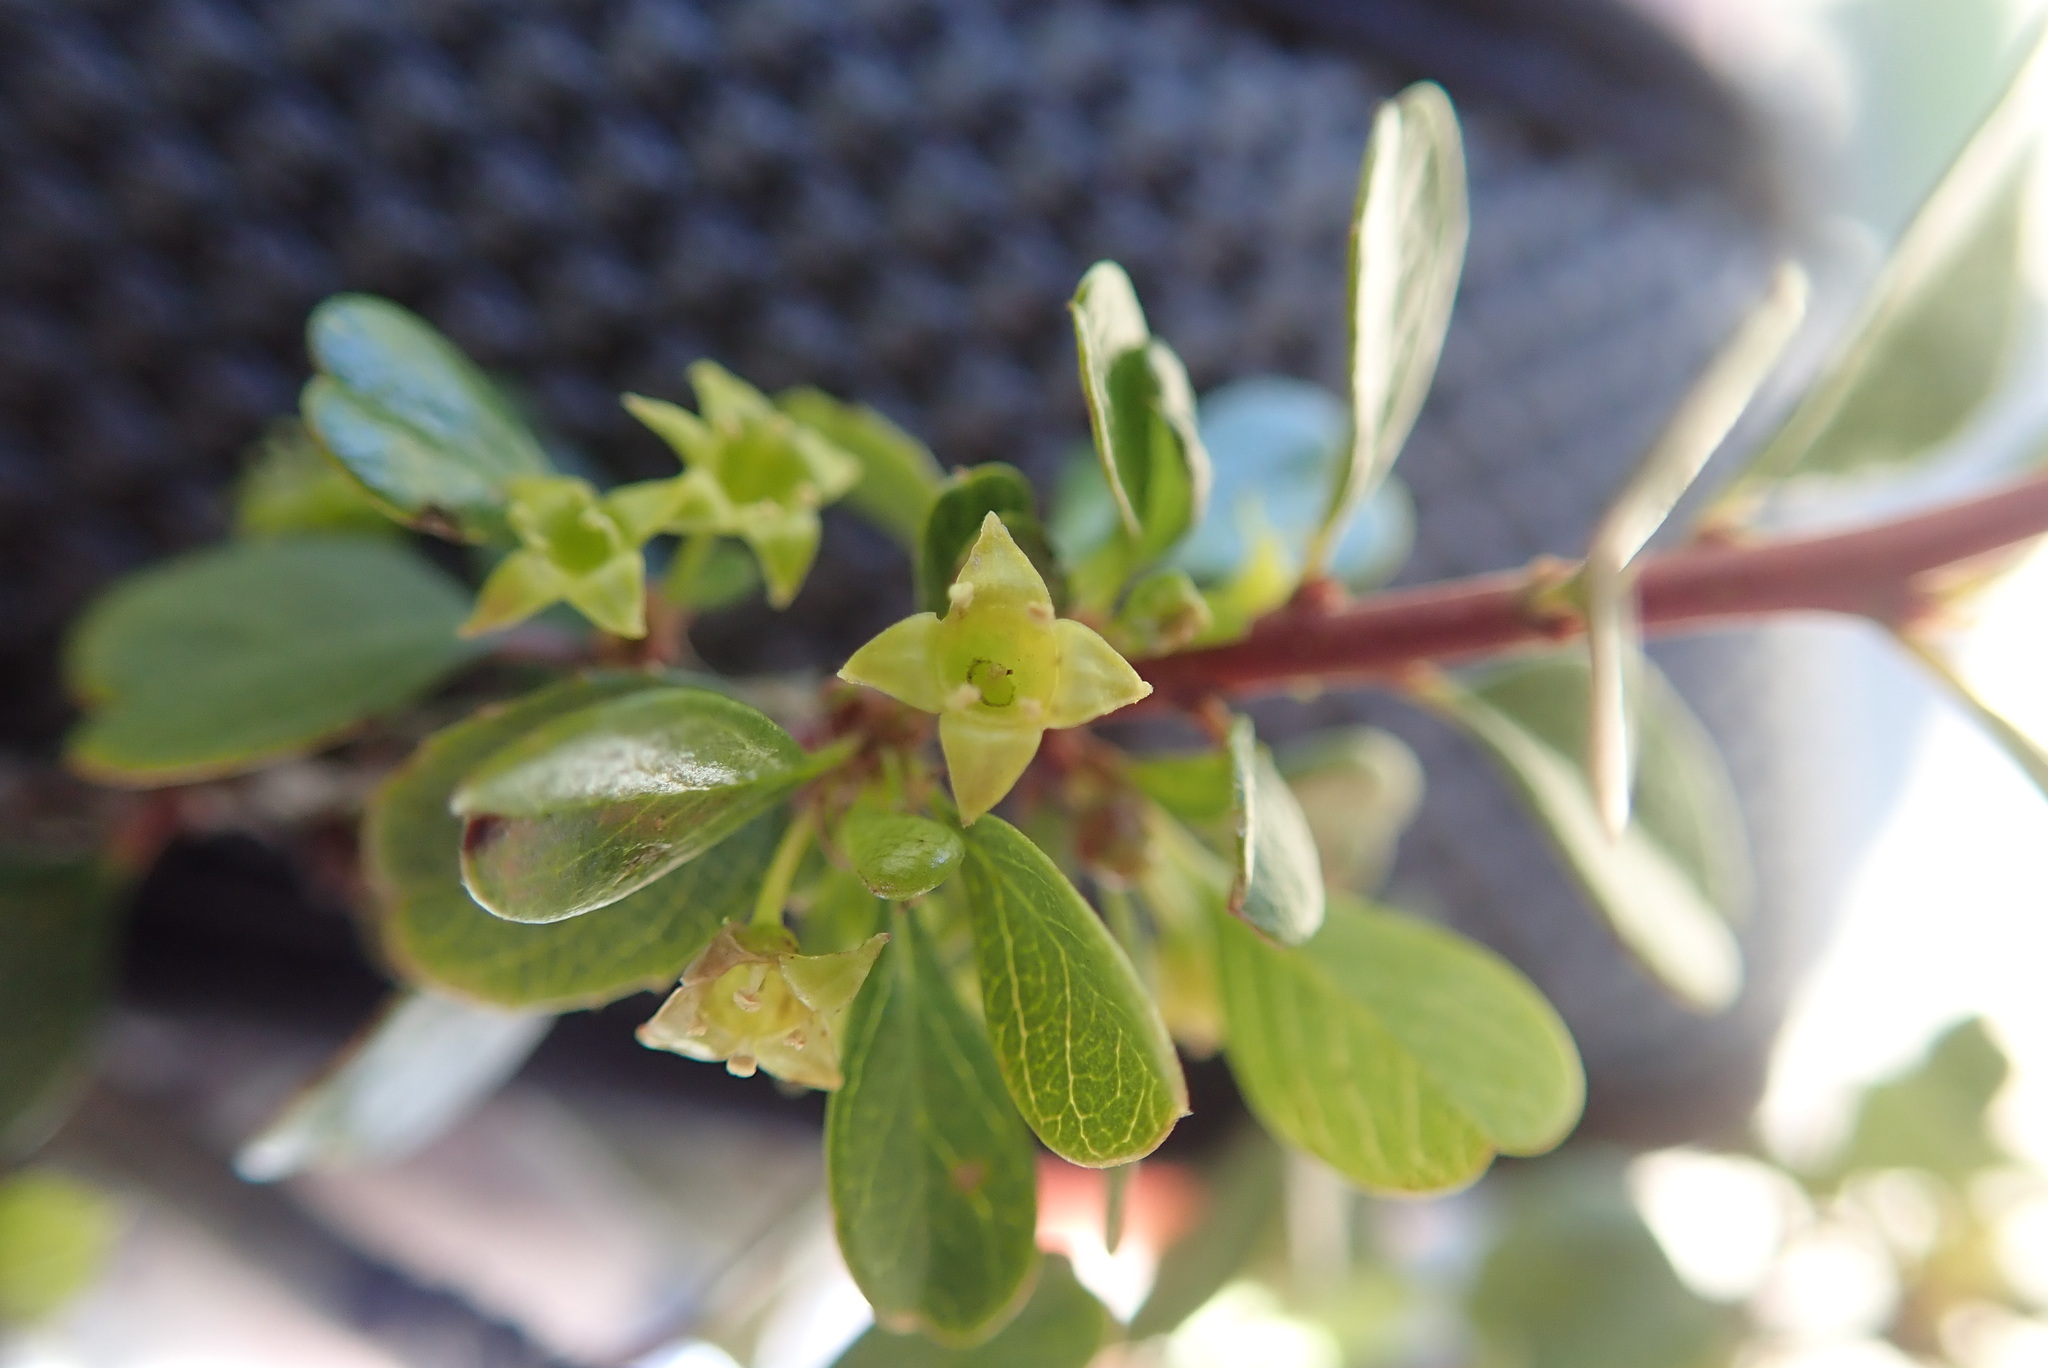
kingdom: Plantae
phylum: Tracheophyta
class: Magnoliopsida
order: Rosales
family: Rhamnaceae
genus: Endotropis
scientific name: Endotropis crocea
